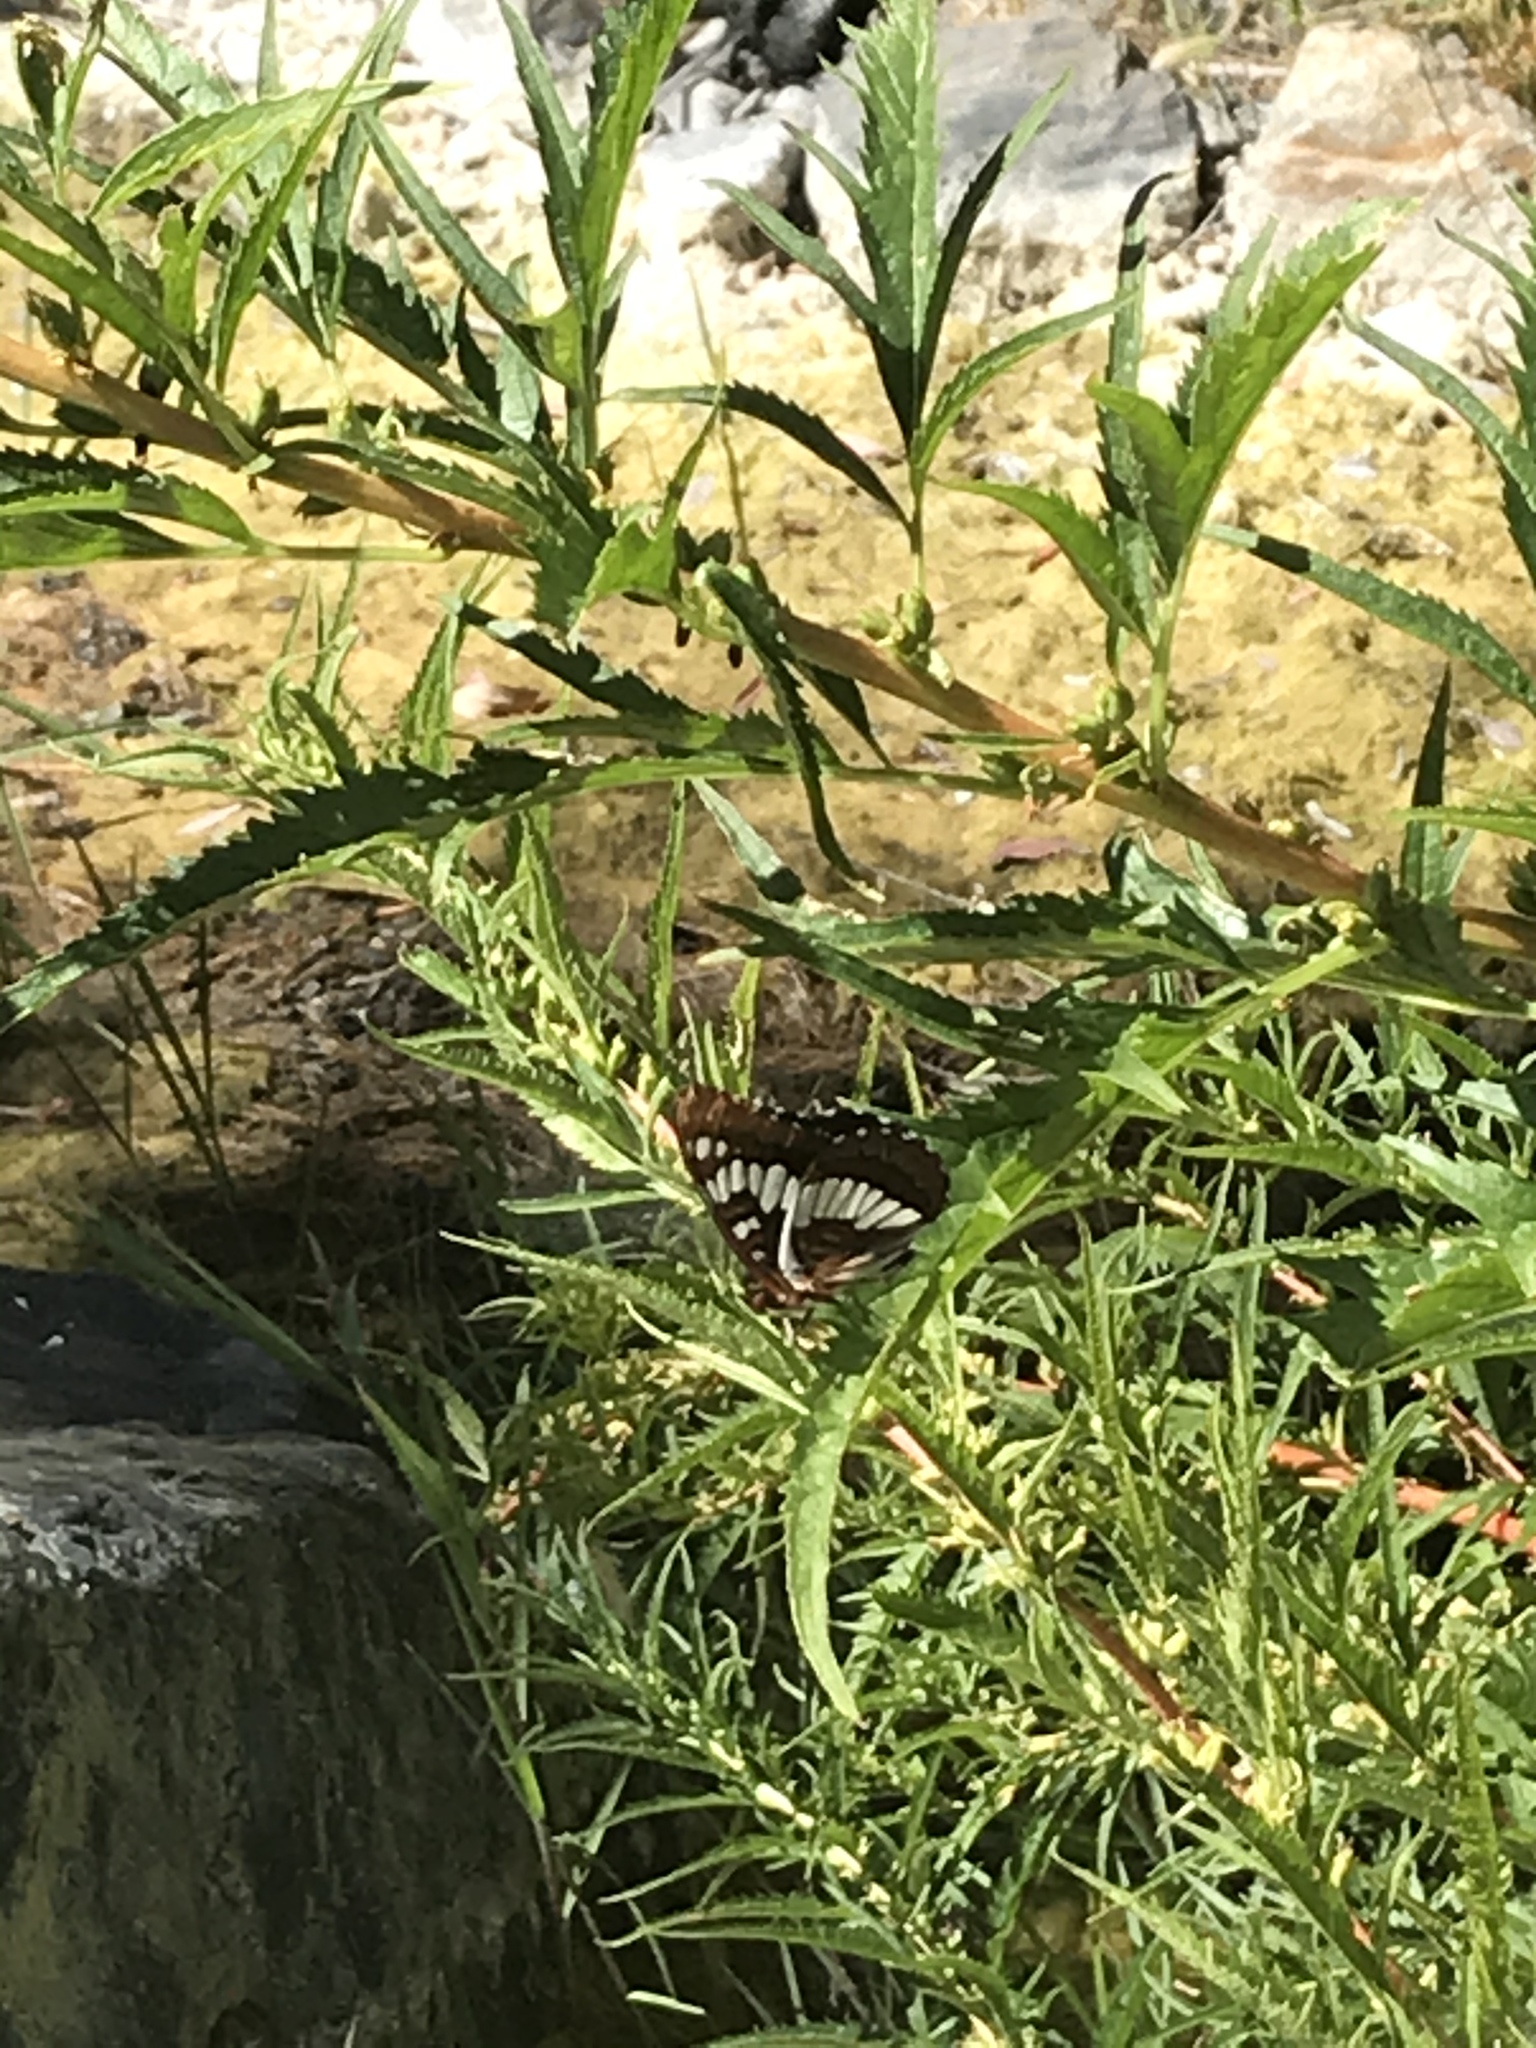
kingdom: Animalia
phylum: Arthropoda
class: Insecta
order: Lepidoptera
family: Nymphalidae
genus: Limenitis
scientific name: Limenitis lorquini
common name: Lorquin's admiral
